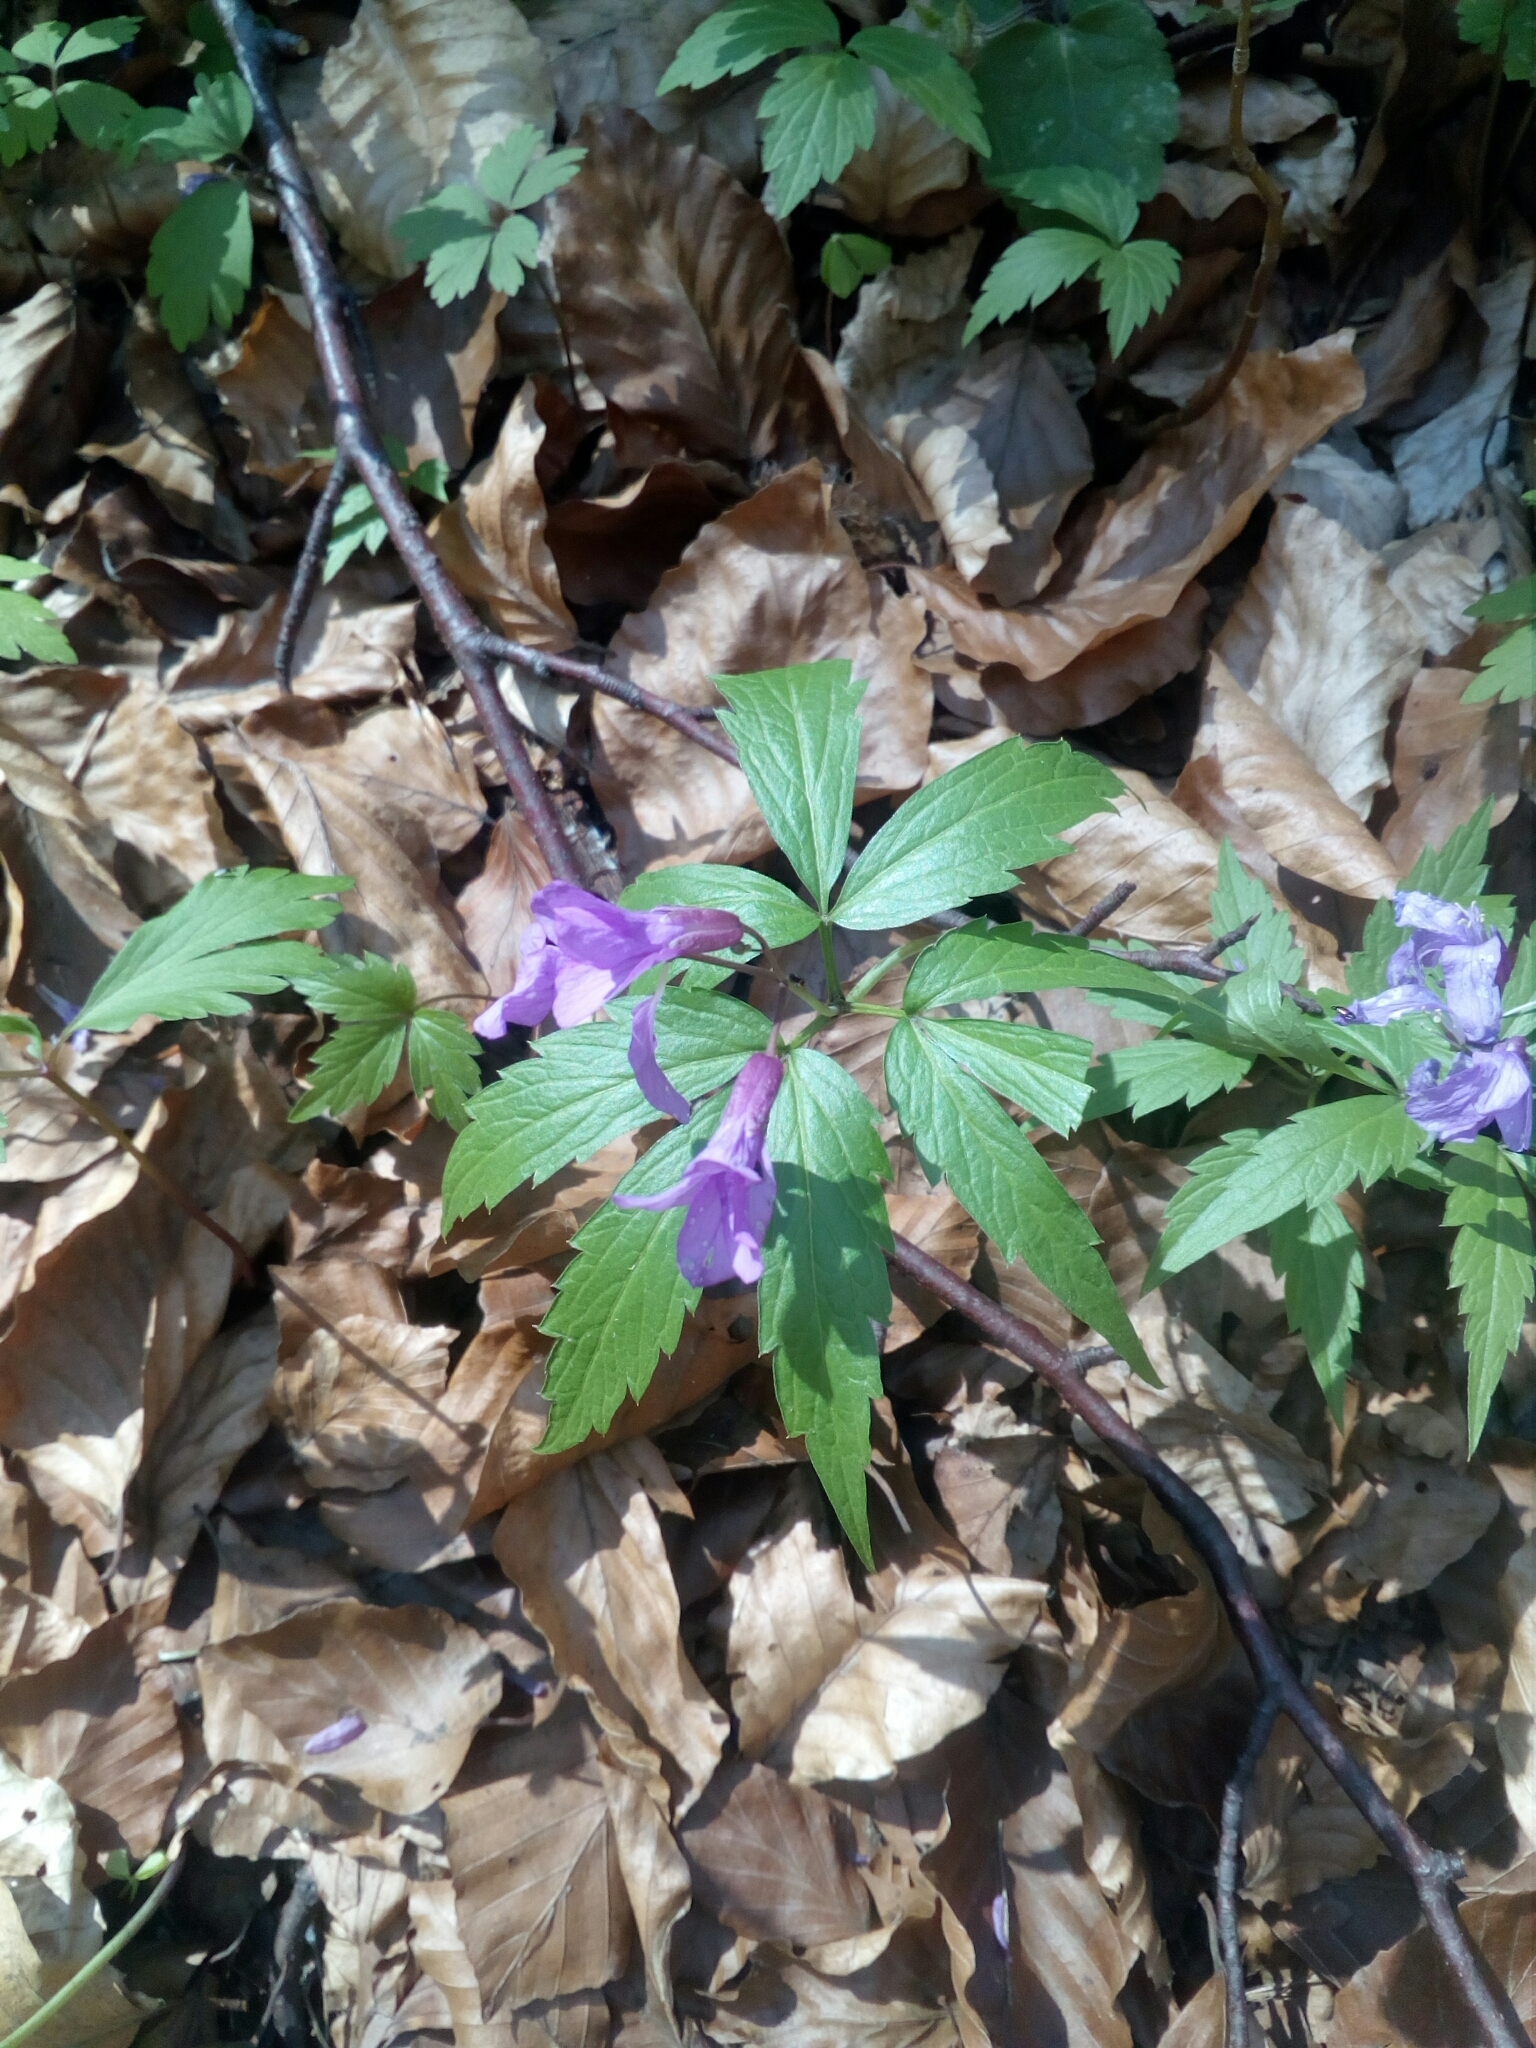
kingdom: Plantae
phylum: Tracheophyta
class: Magnoliopsida
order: Brassicales
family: Brassicaceae
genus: Cardamine
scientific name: Cardamine glanduligera
